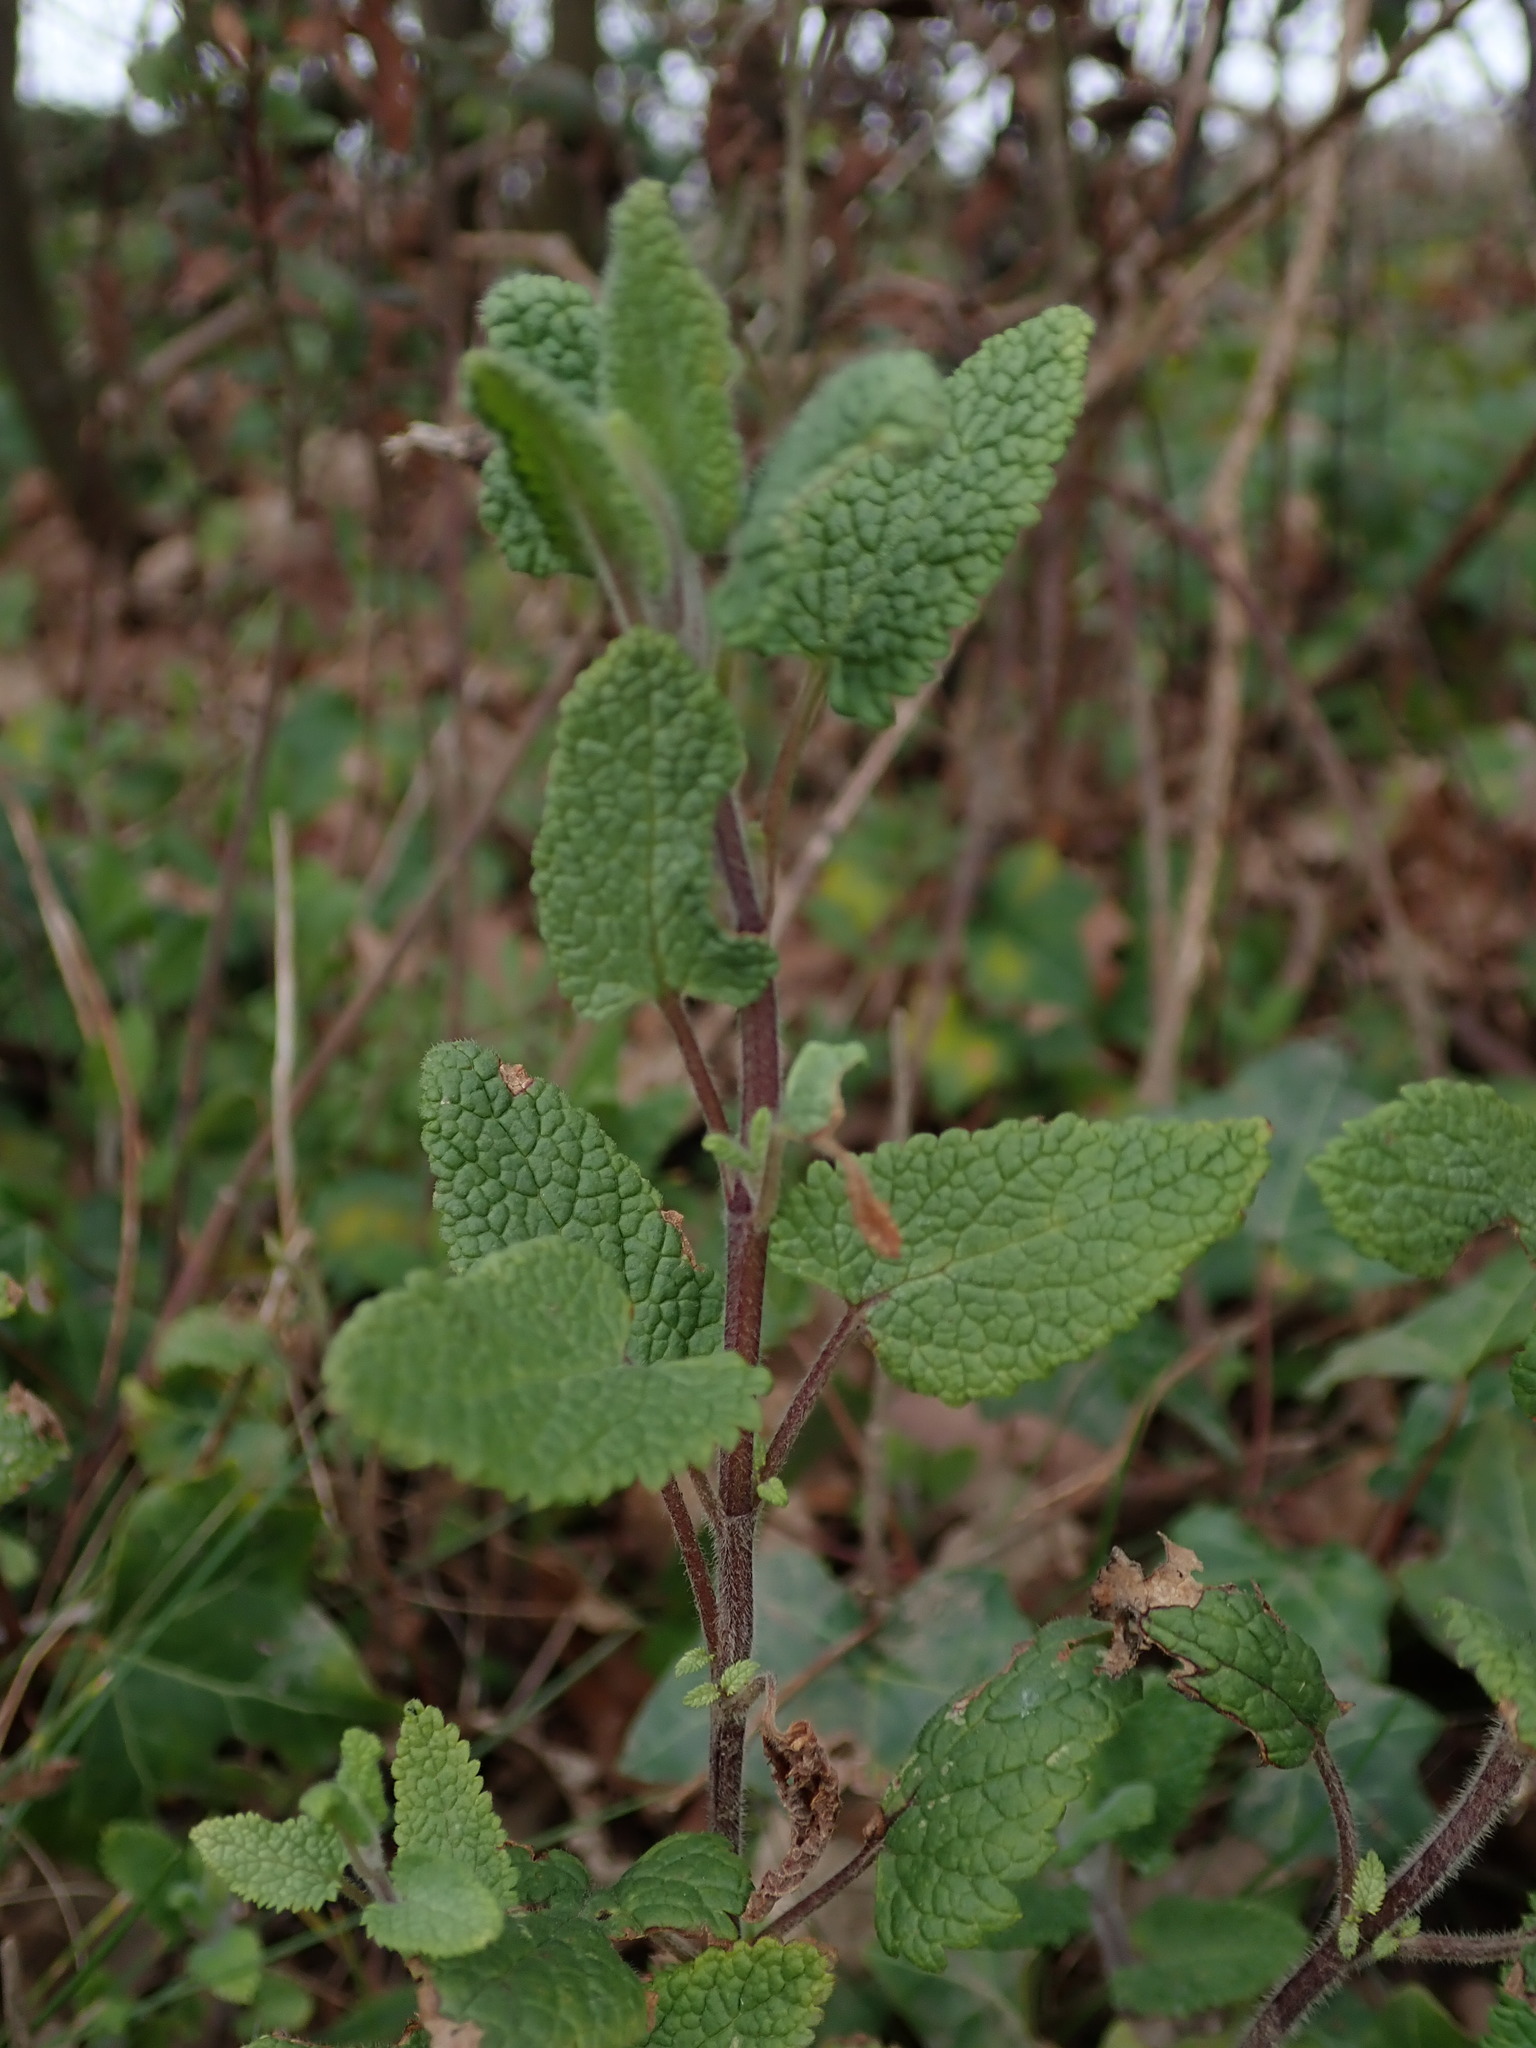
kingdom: Plantae
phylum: Tracheophyta
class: Magnoliopsida
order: Lamiales
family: Lamiaceae
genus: Teucrium
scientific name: Teucrium scorodonia
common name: Woodland germander
